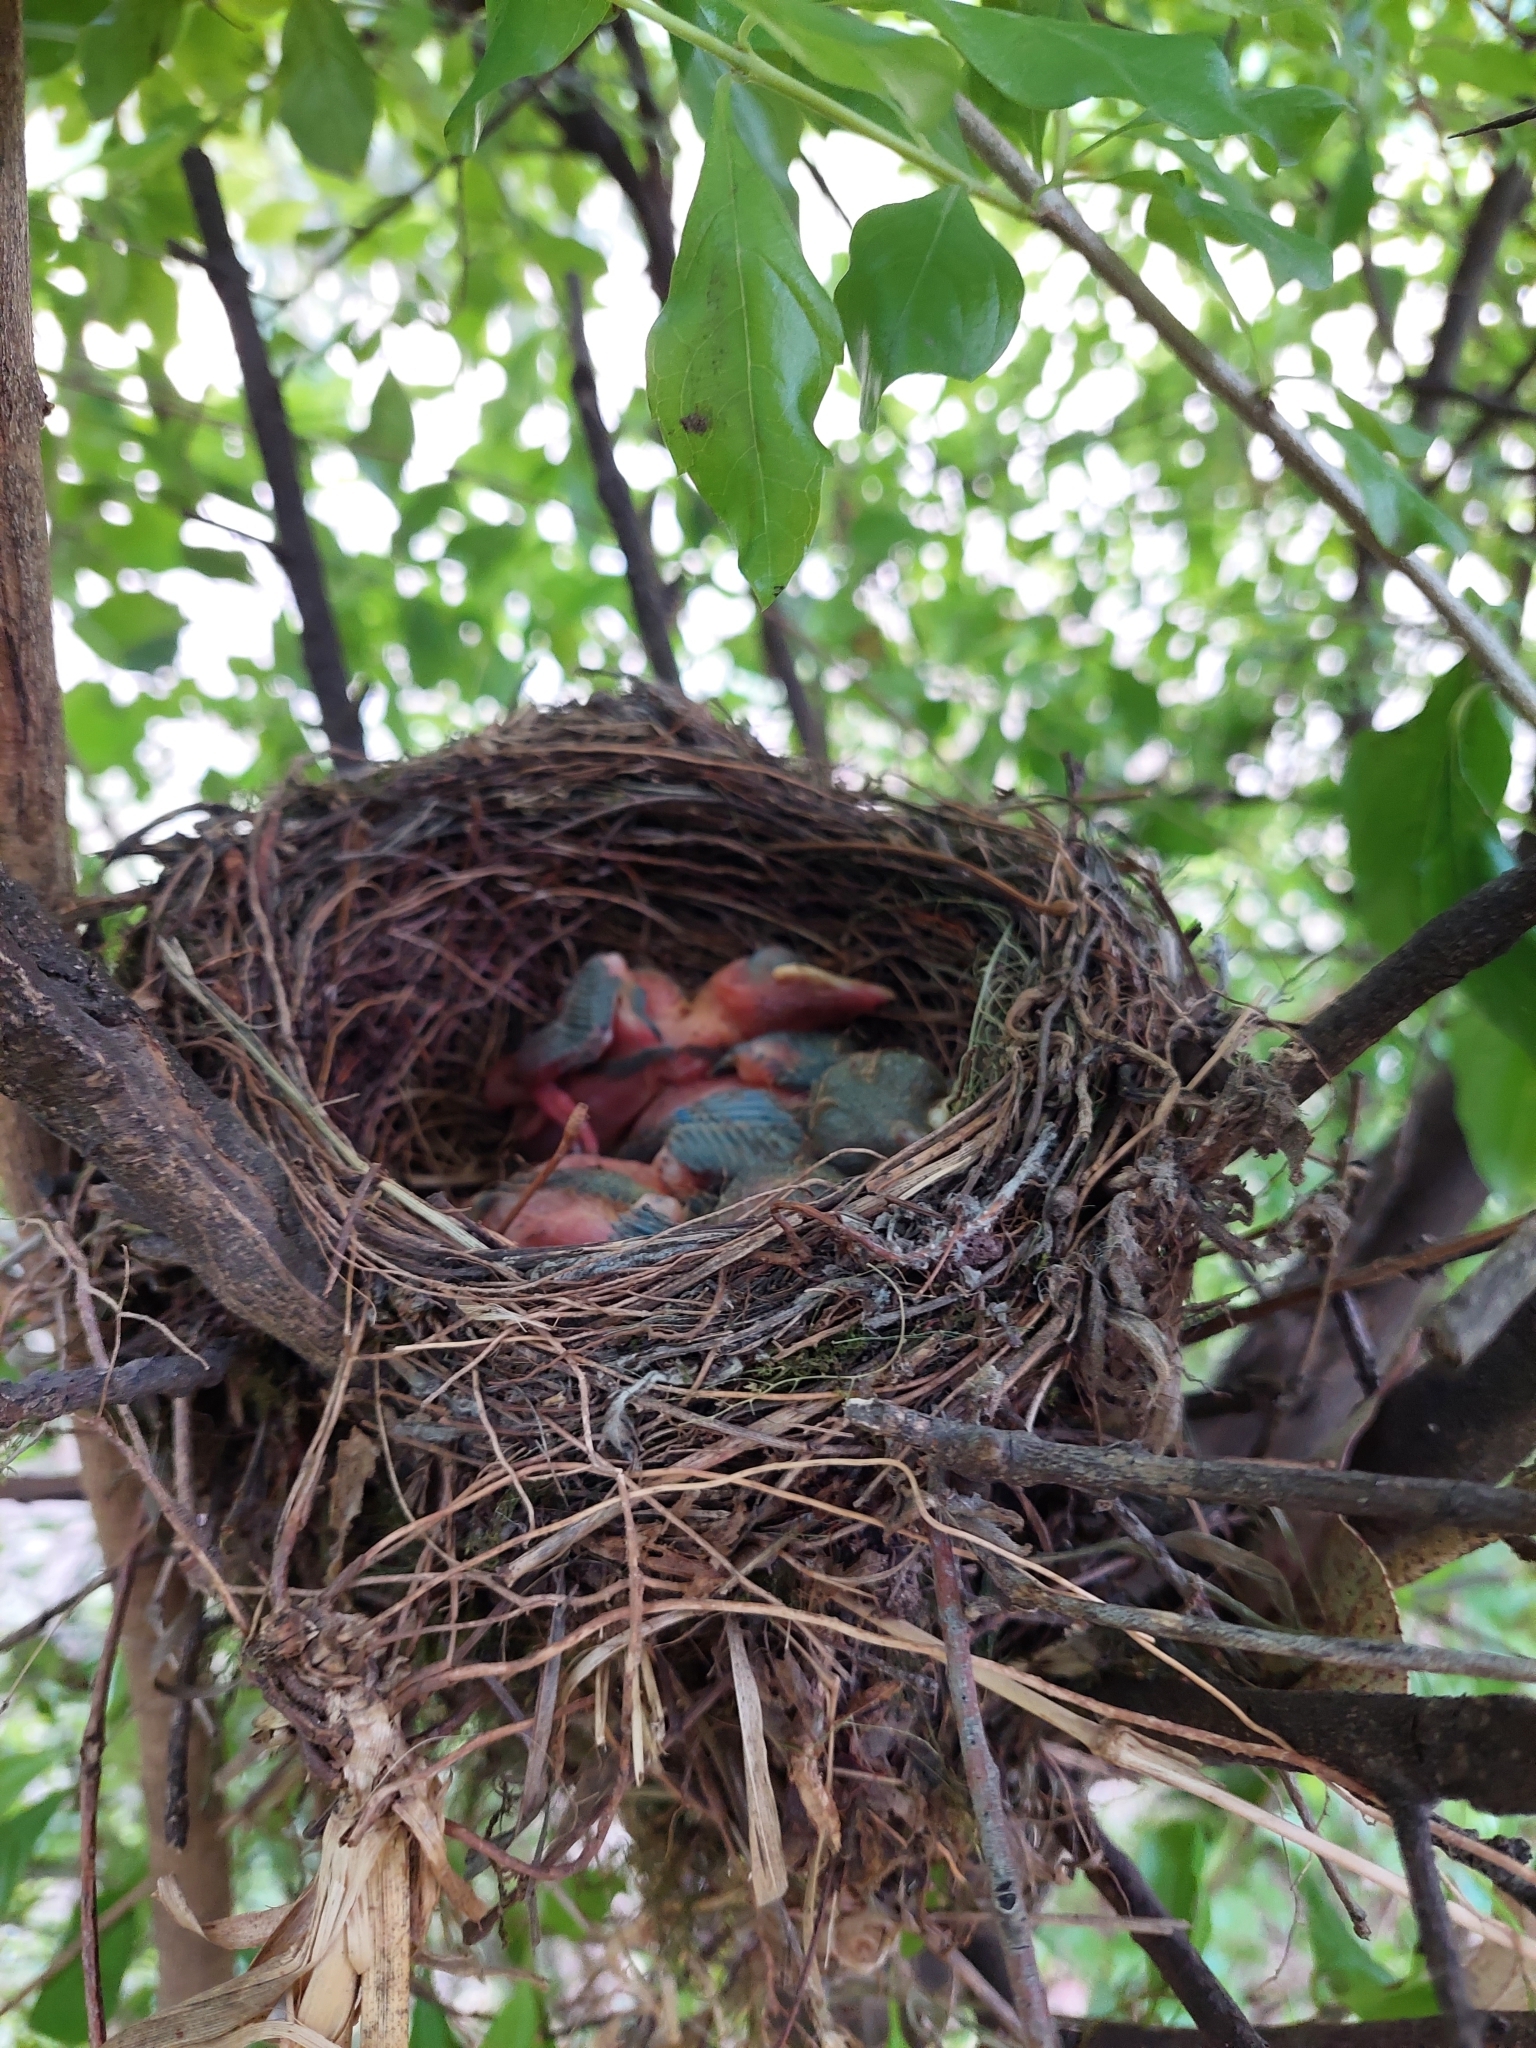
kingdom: Animalia
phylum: Chordata
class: Aves
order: Passeriformes
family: Turdidae
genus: Turdus
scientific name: Turdus rufiventris
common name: Rufous-bellied thrush
